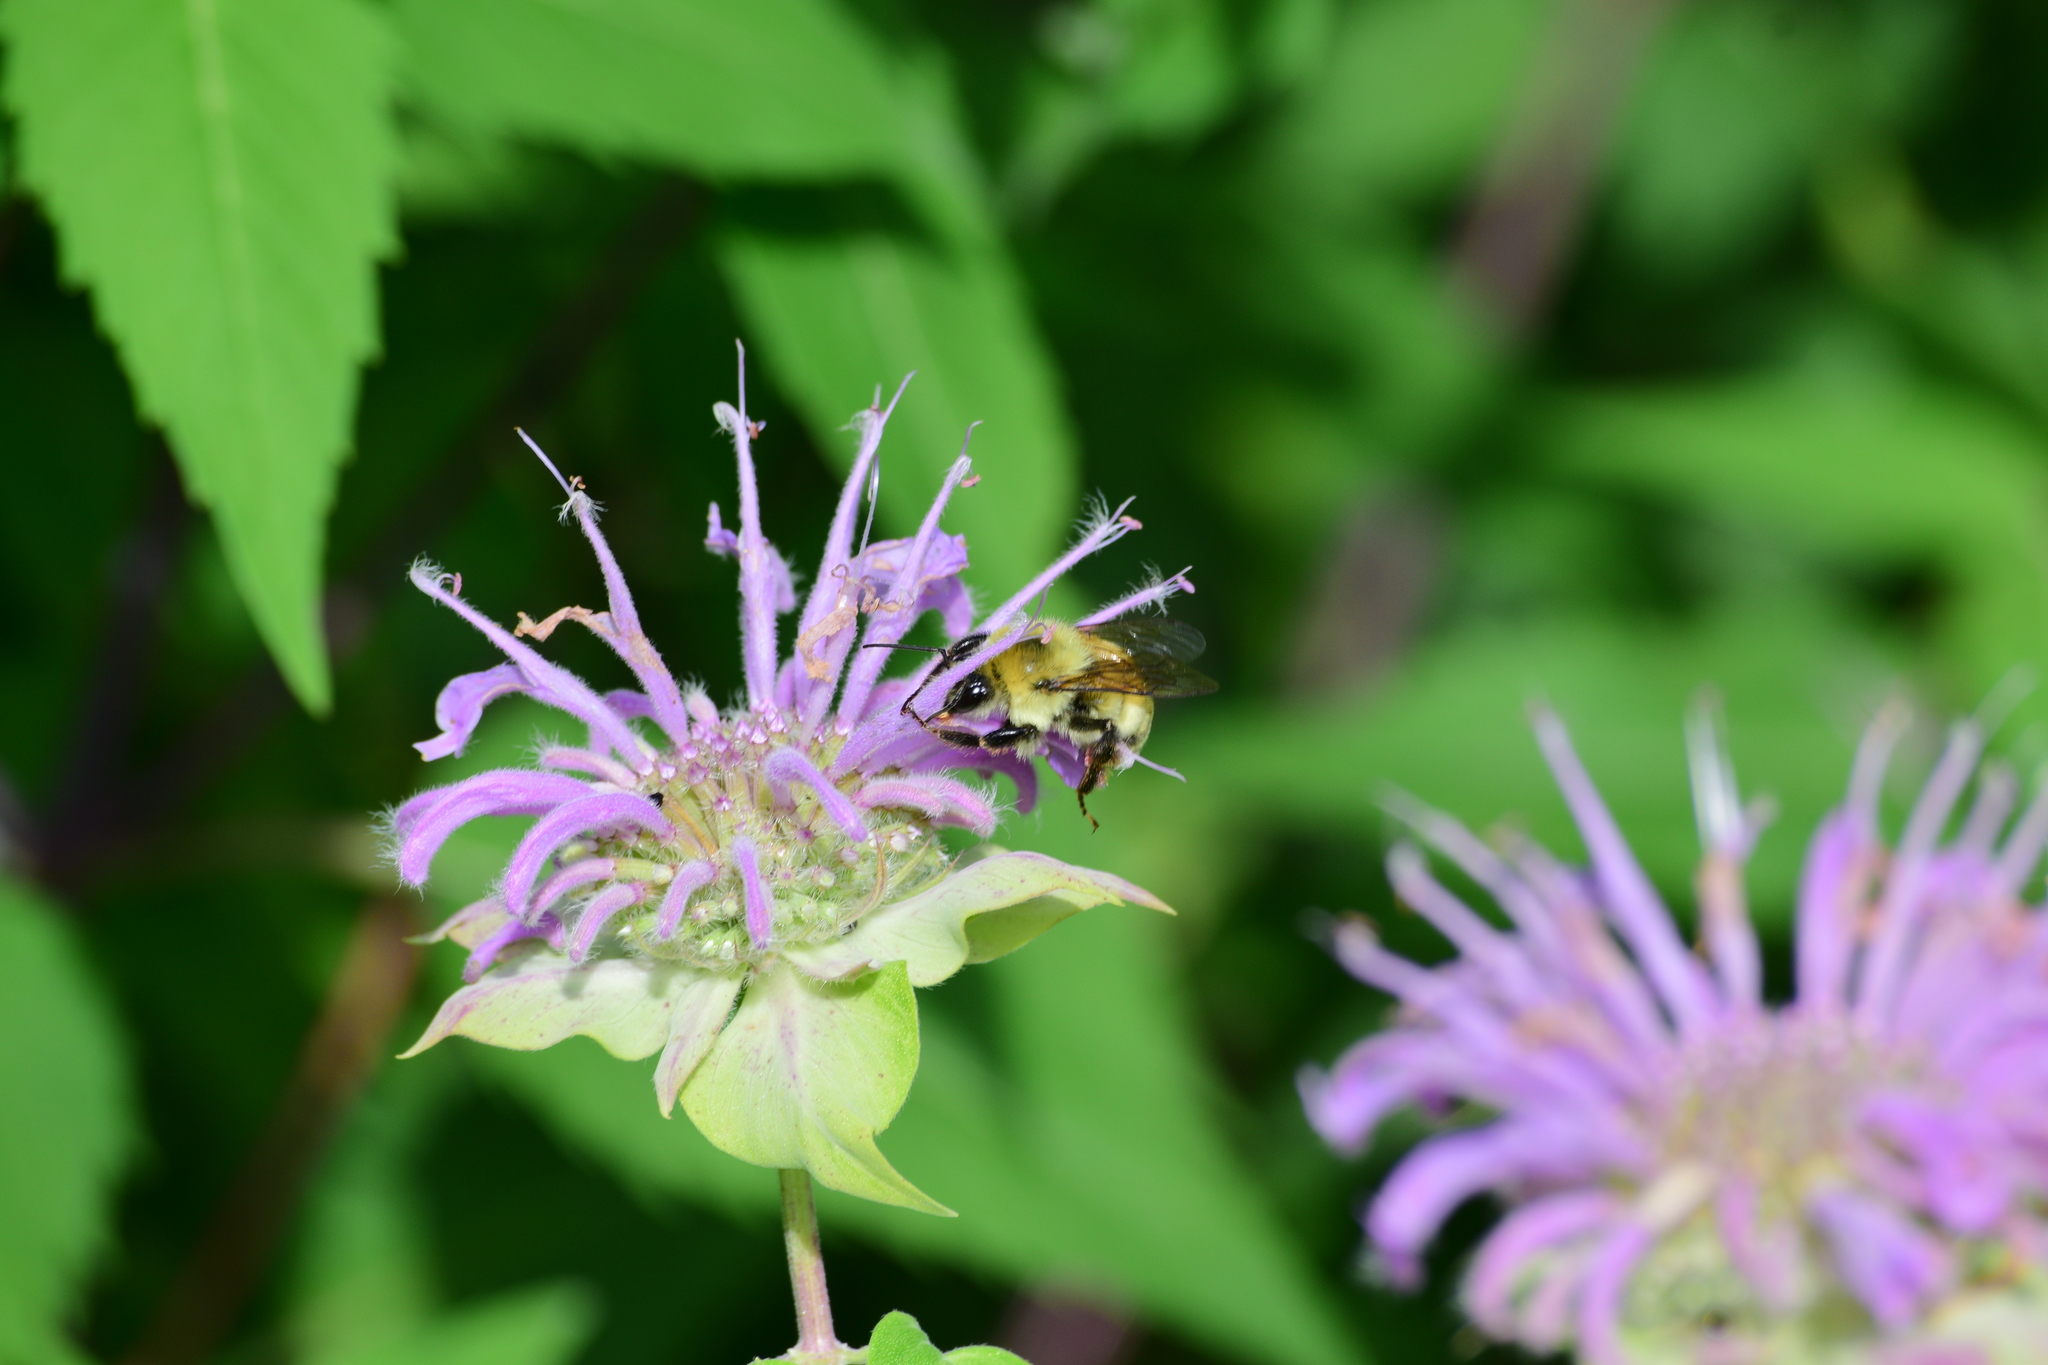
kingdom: Animalia
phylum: Arthropoda
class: Insecta
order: Hymenoptera
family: Apidae
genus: Bombus
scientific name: Bombus bimaculatus
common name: Two-spotted bumble bee
